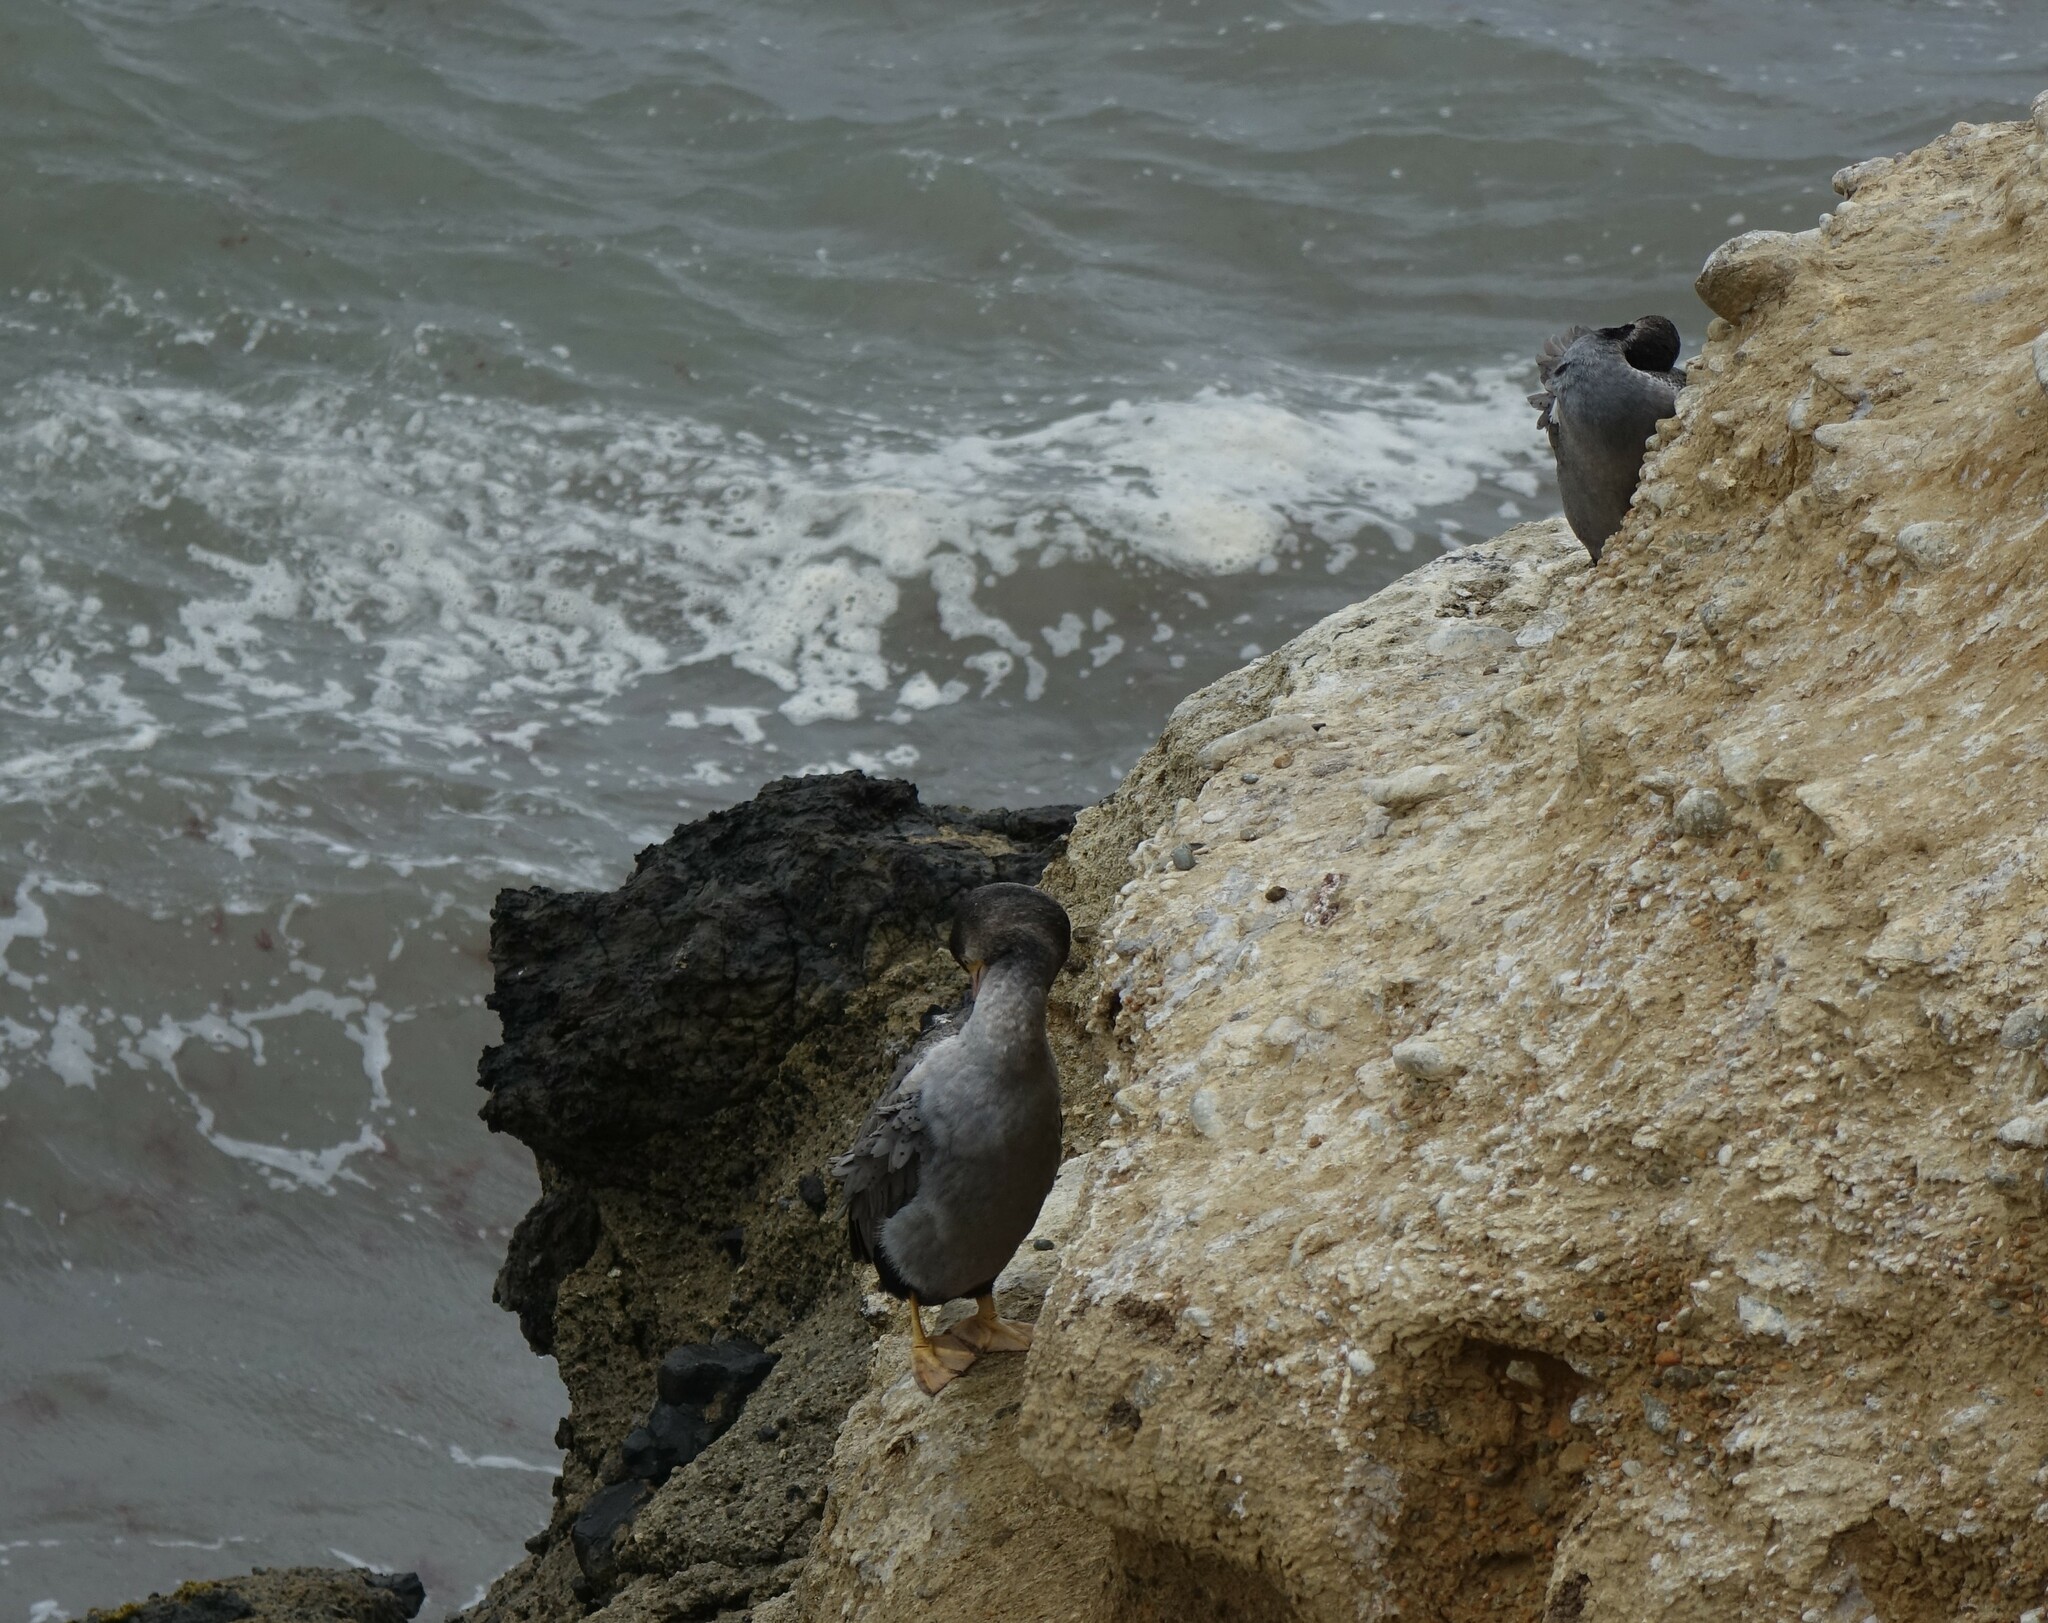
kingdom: Animalia
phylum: Chordata
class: Aves
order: Suliformes
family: Phalacrocoracidae
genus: Phalacrocorax
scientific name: Phalacrocorax punctatus
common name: Spotted shag
